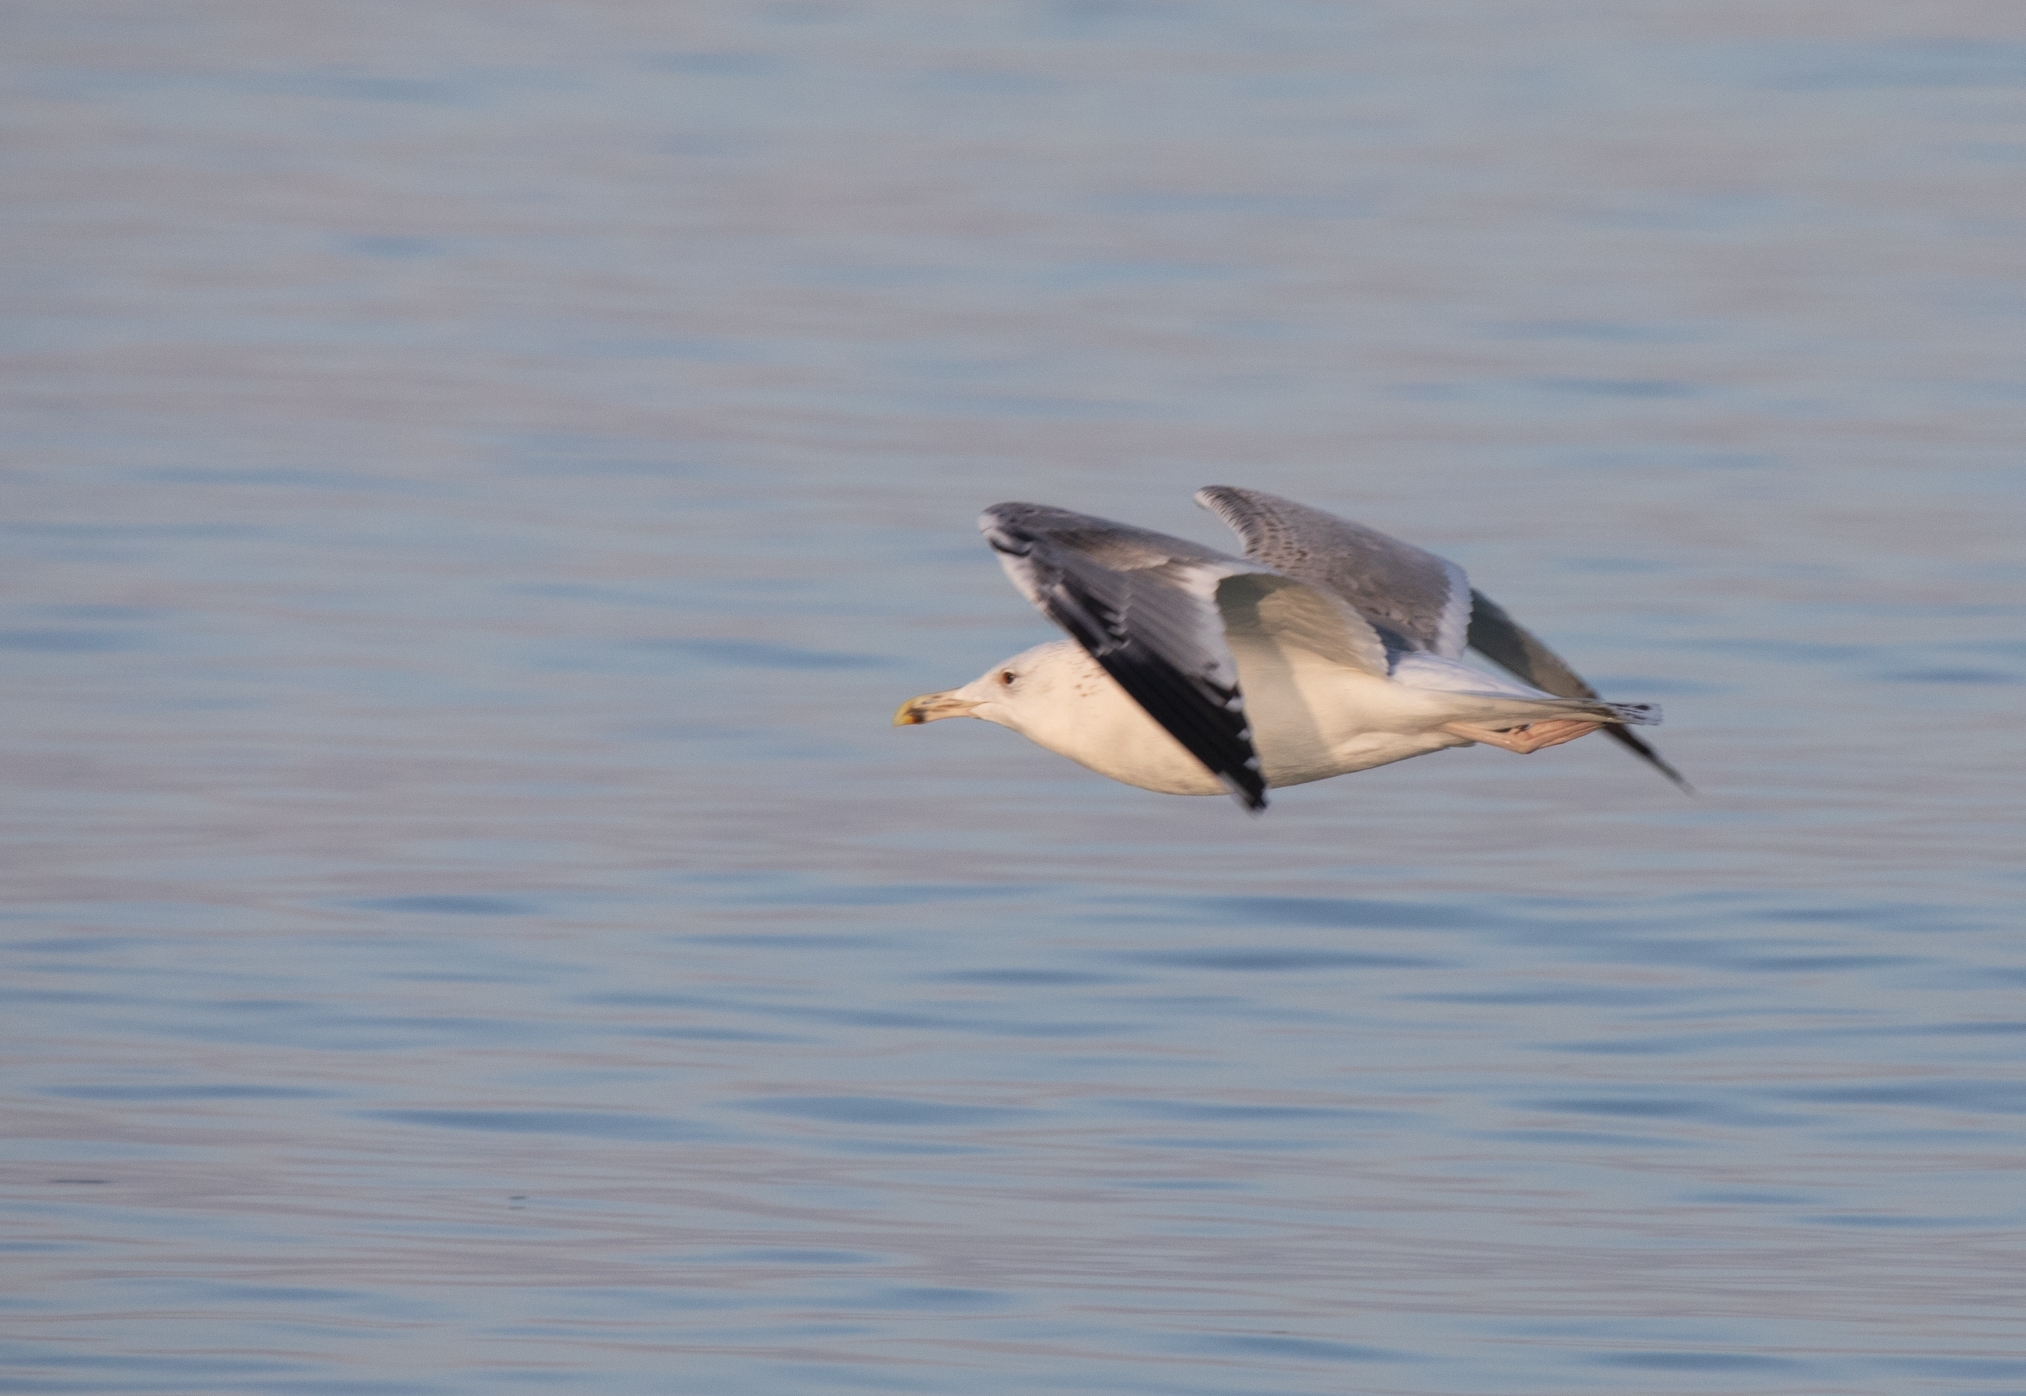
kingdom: Animalia
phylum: Chordata
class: Aves
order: Charadriiformes
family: Laridae
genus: Larus
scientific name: Larus cachinnans
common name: Caspian gull
